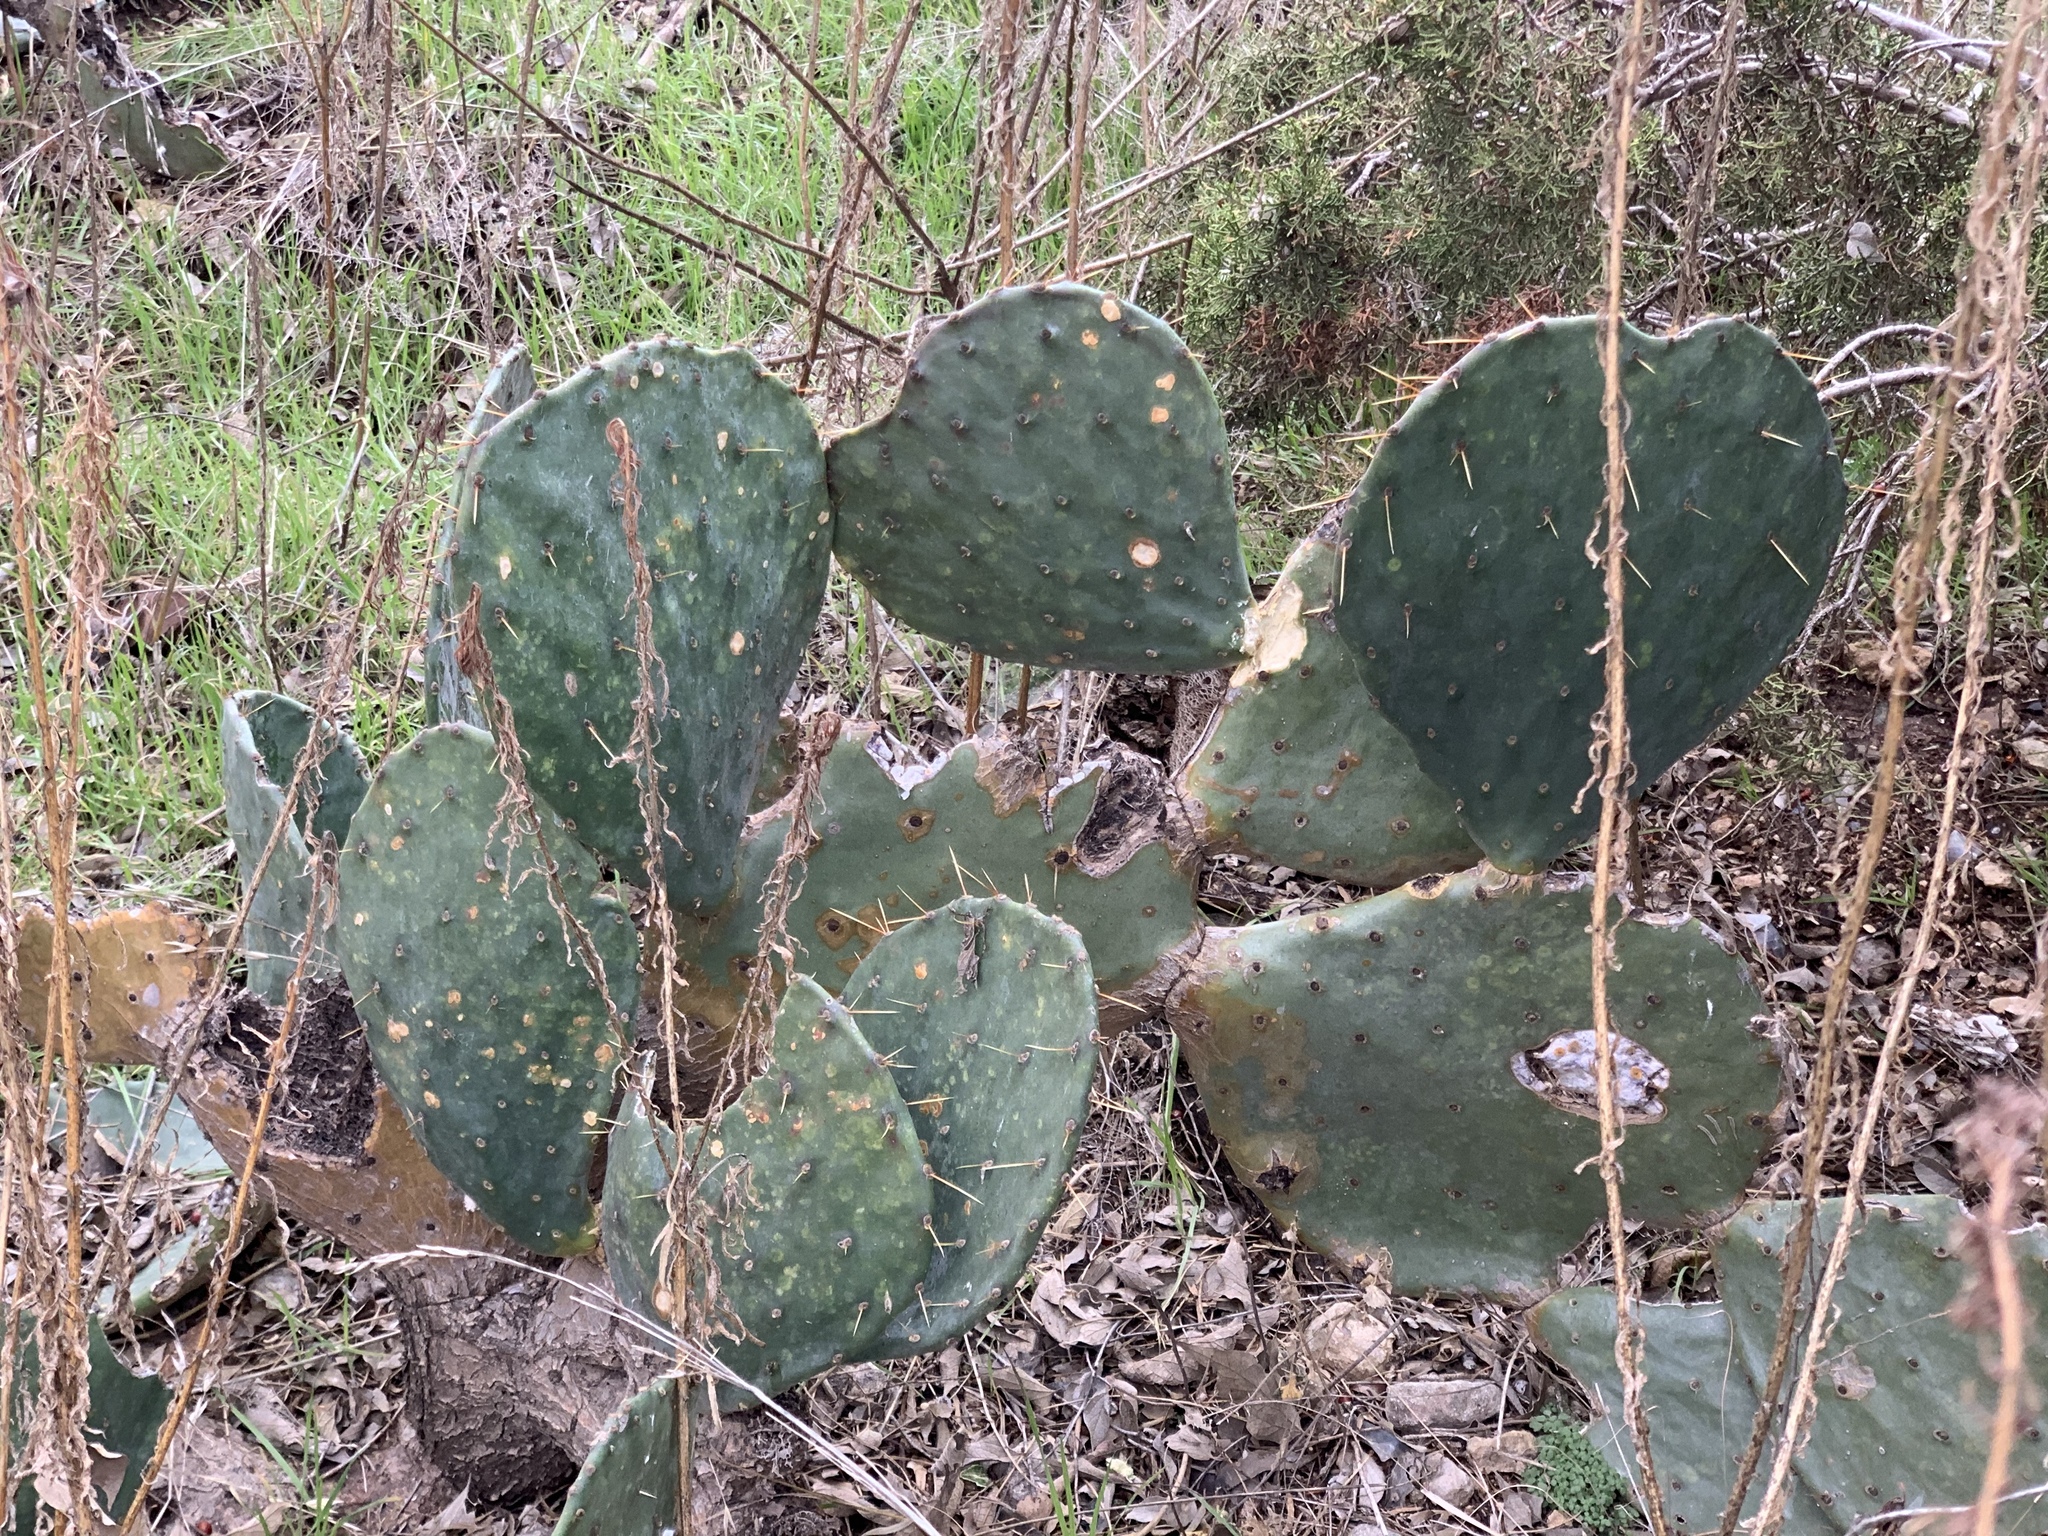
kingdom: Plantae
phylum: Tracheophyta
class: Magnoliopsida
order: Caryophyllales
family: Cactaceae
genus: Opuntia
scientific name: Opuntia orbiculata
